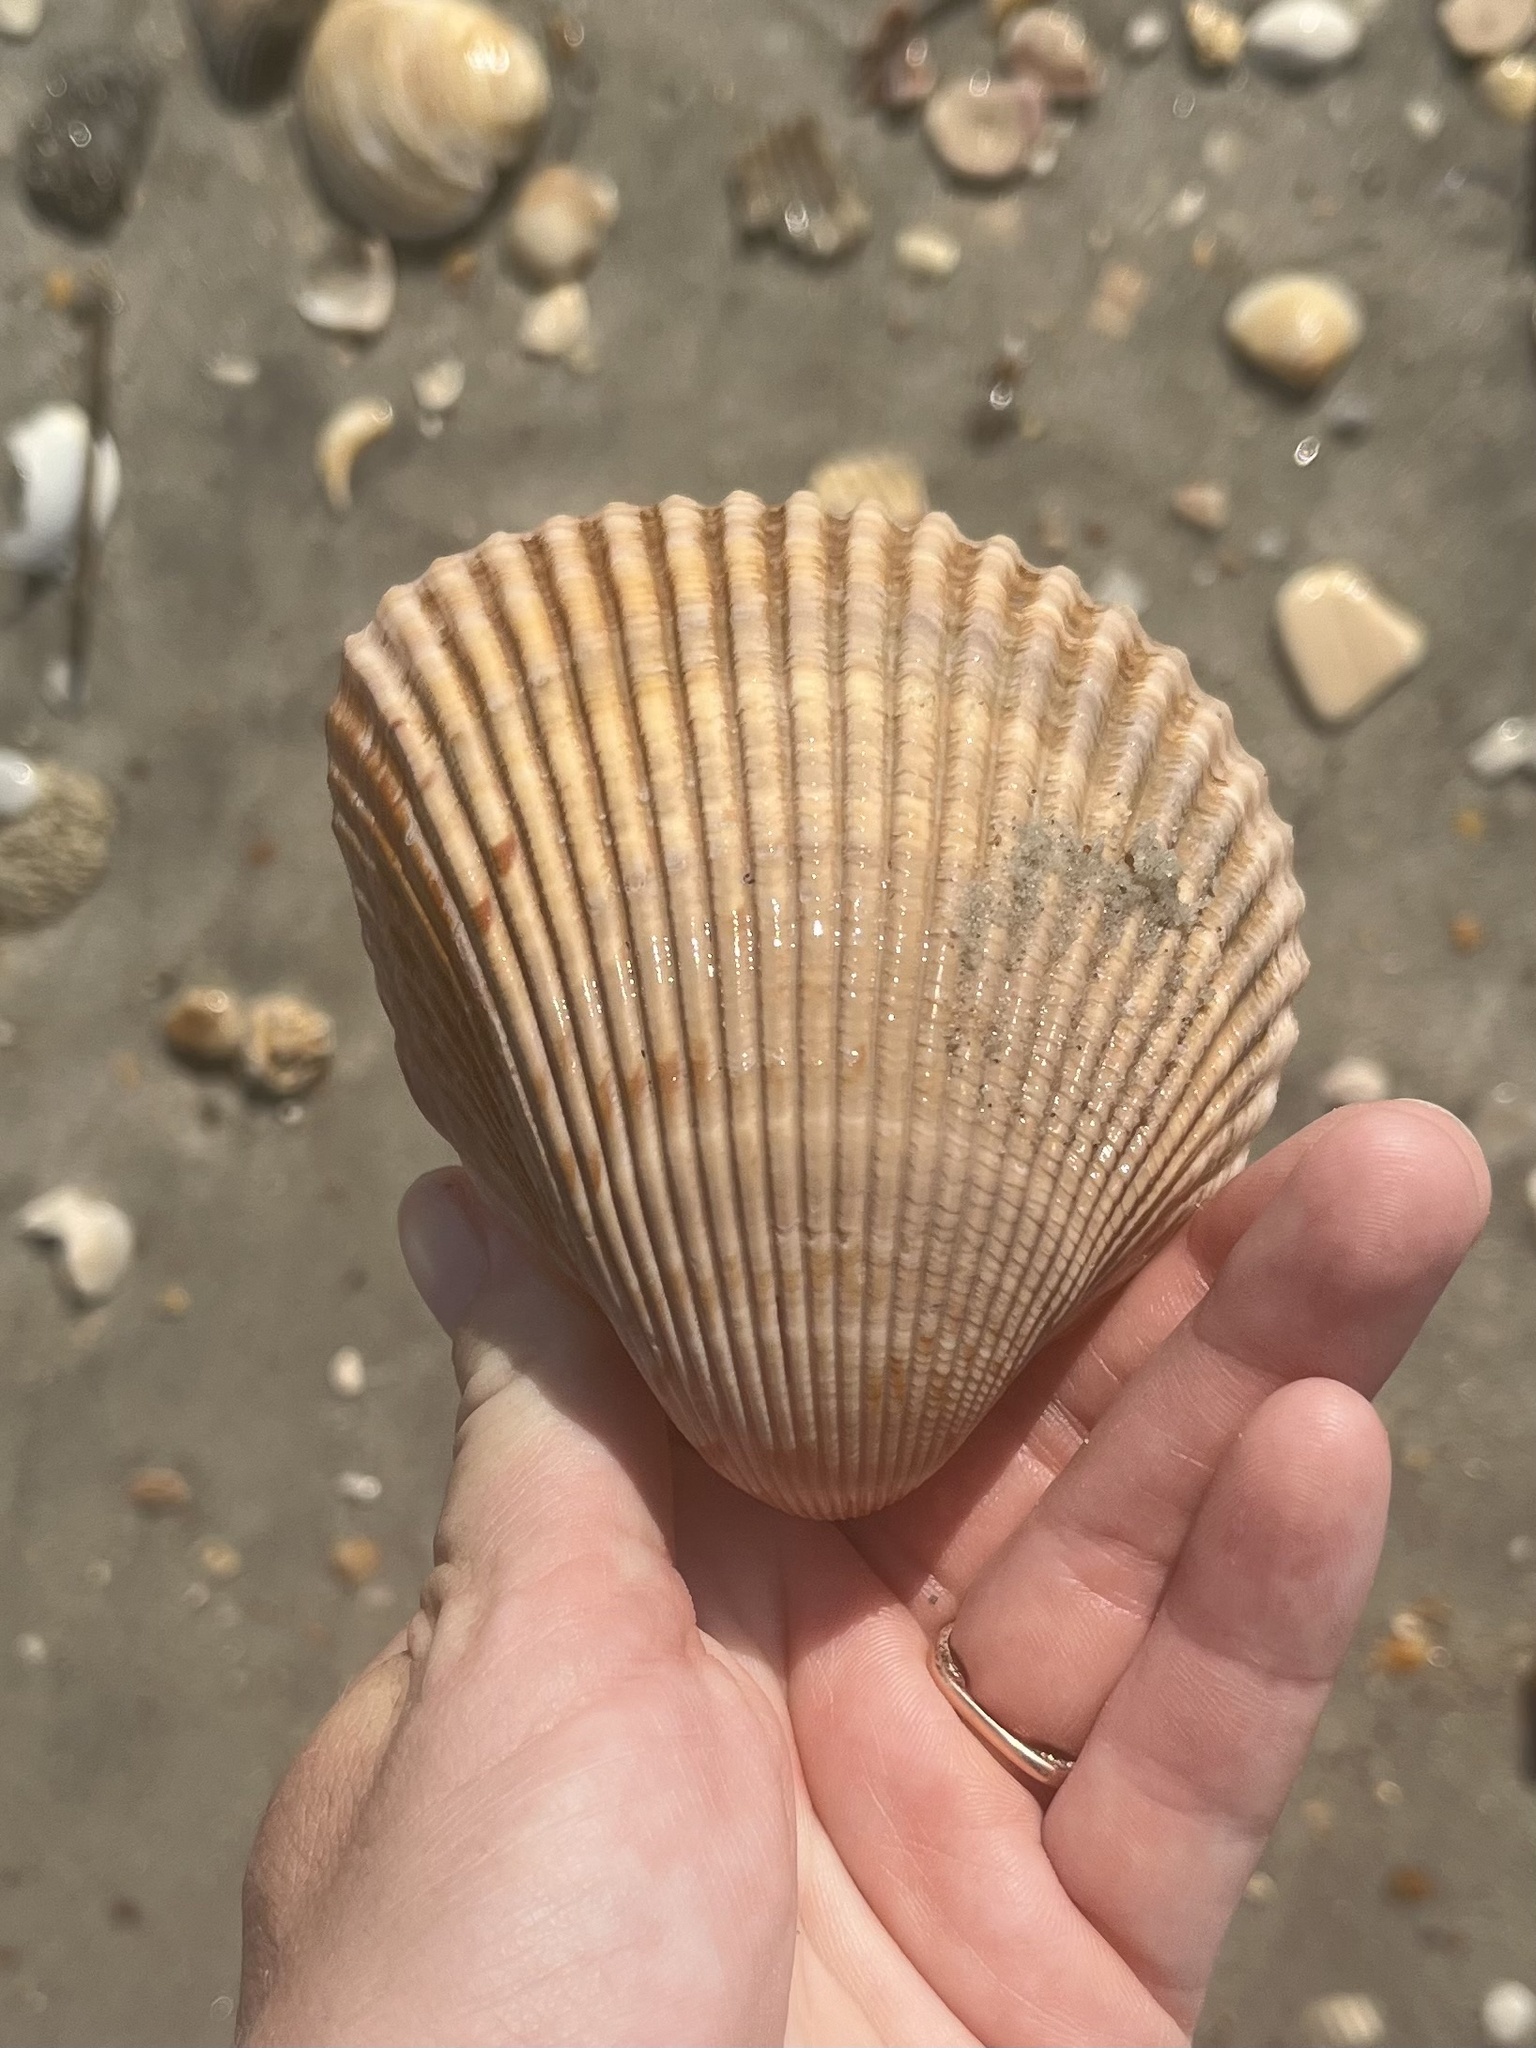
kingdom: Animalia
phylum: Mollusca
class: Bivalvia
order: Cardiida
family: Cardiidae
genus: Dinocardium
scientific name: Dinocardium robustum
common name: Atlantic giant cockle
